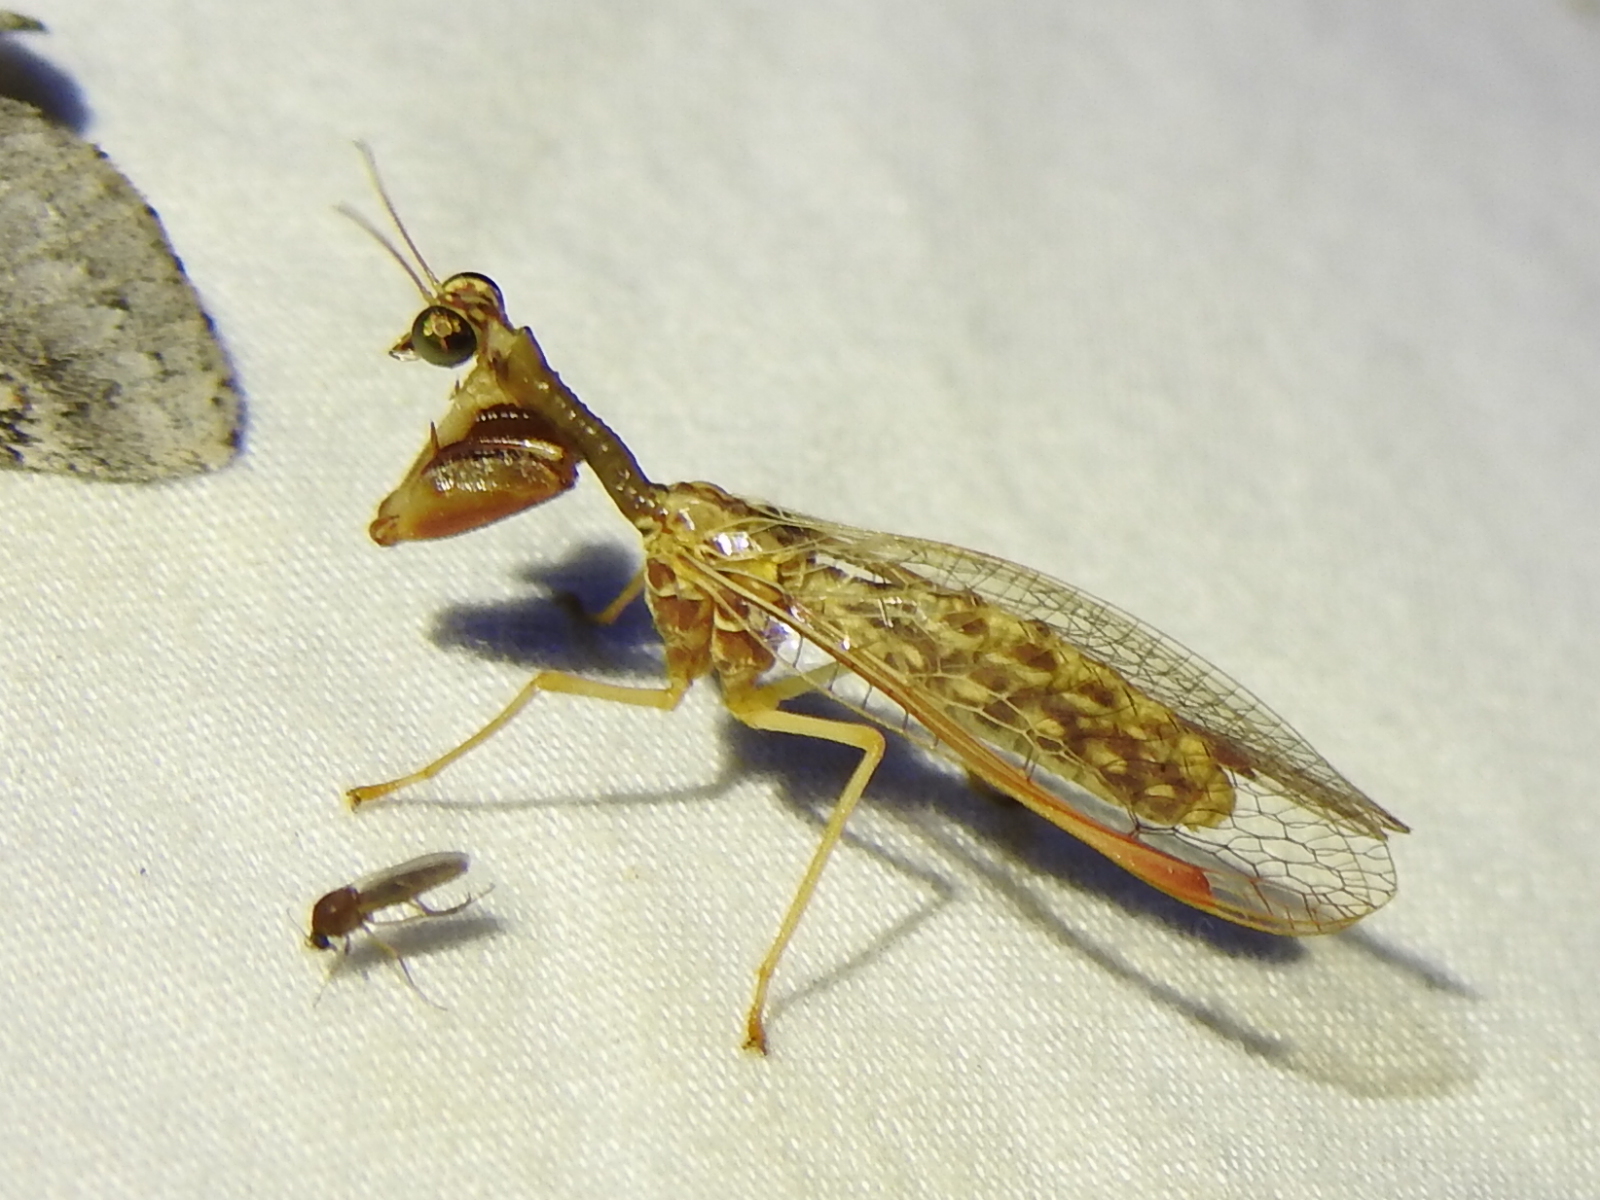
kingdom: Animalia
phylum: Arthropoda
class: Insecta
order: Neuroptera
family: Mantispidae
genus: Dicromantispa
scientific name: Dicromantispa sayi
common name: Say's mantidfly
